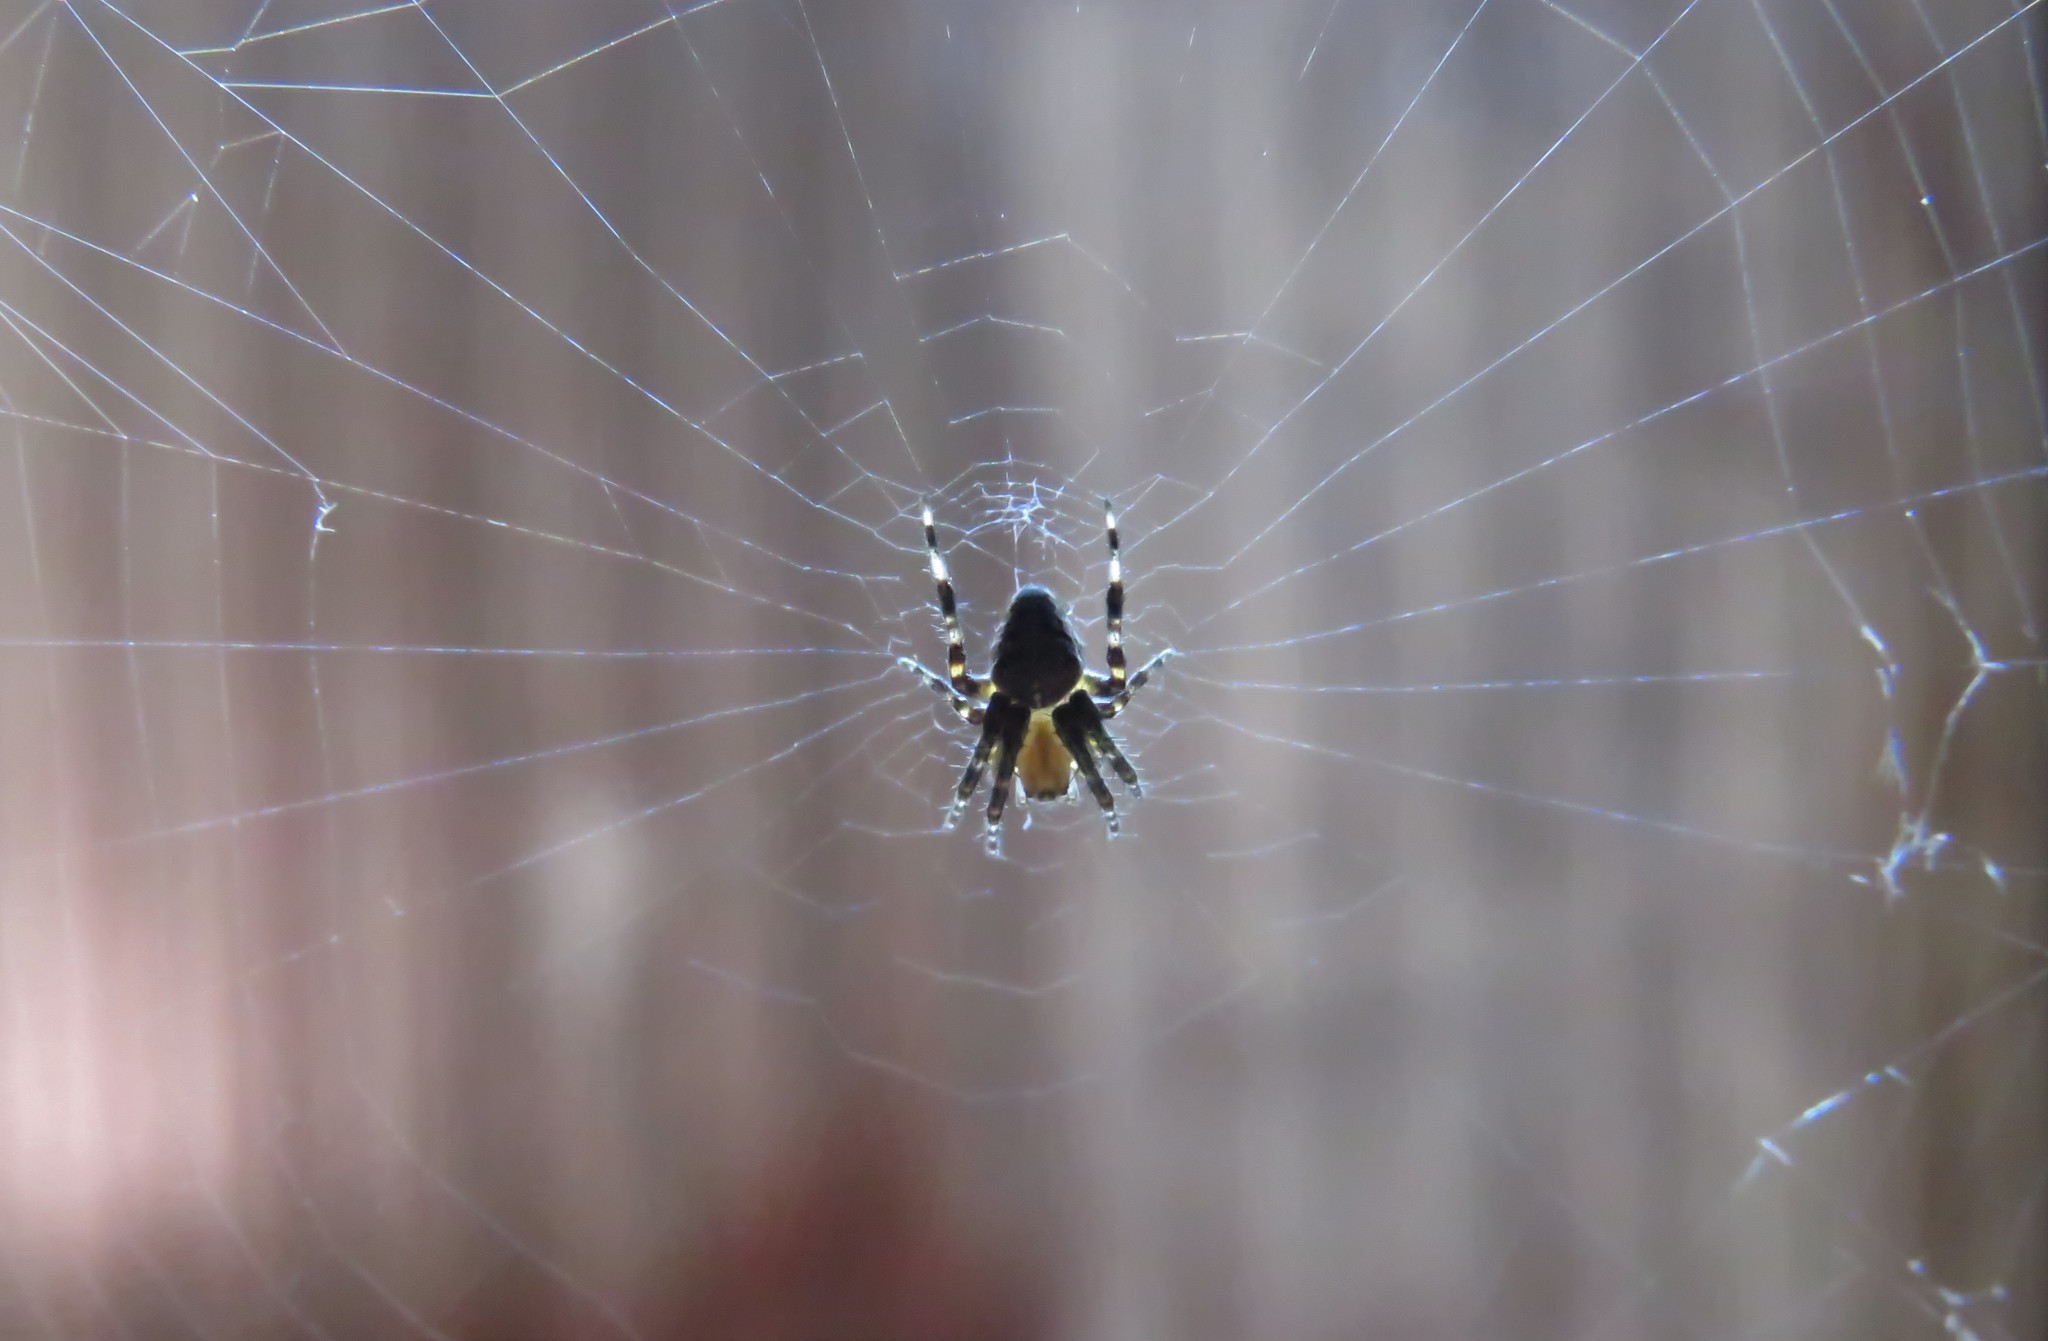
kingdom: Animalia
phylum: Arthropoda
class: Arachnida
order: Araneae
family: Araneidae
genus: Araneus
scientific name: Araneus diadematus
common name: Cross orbweaver
